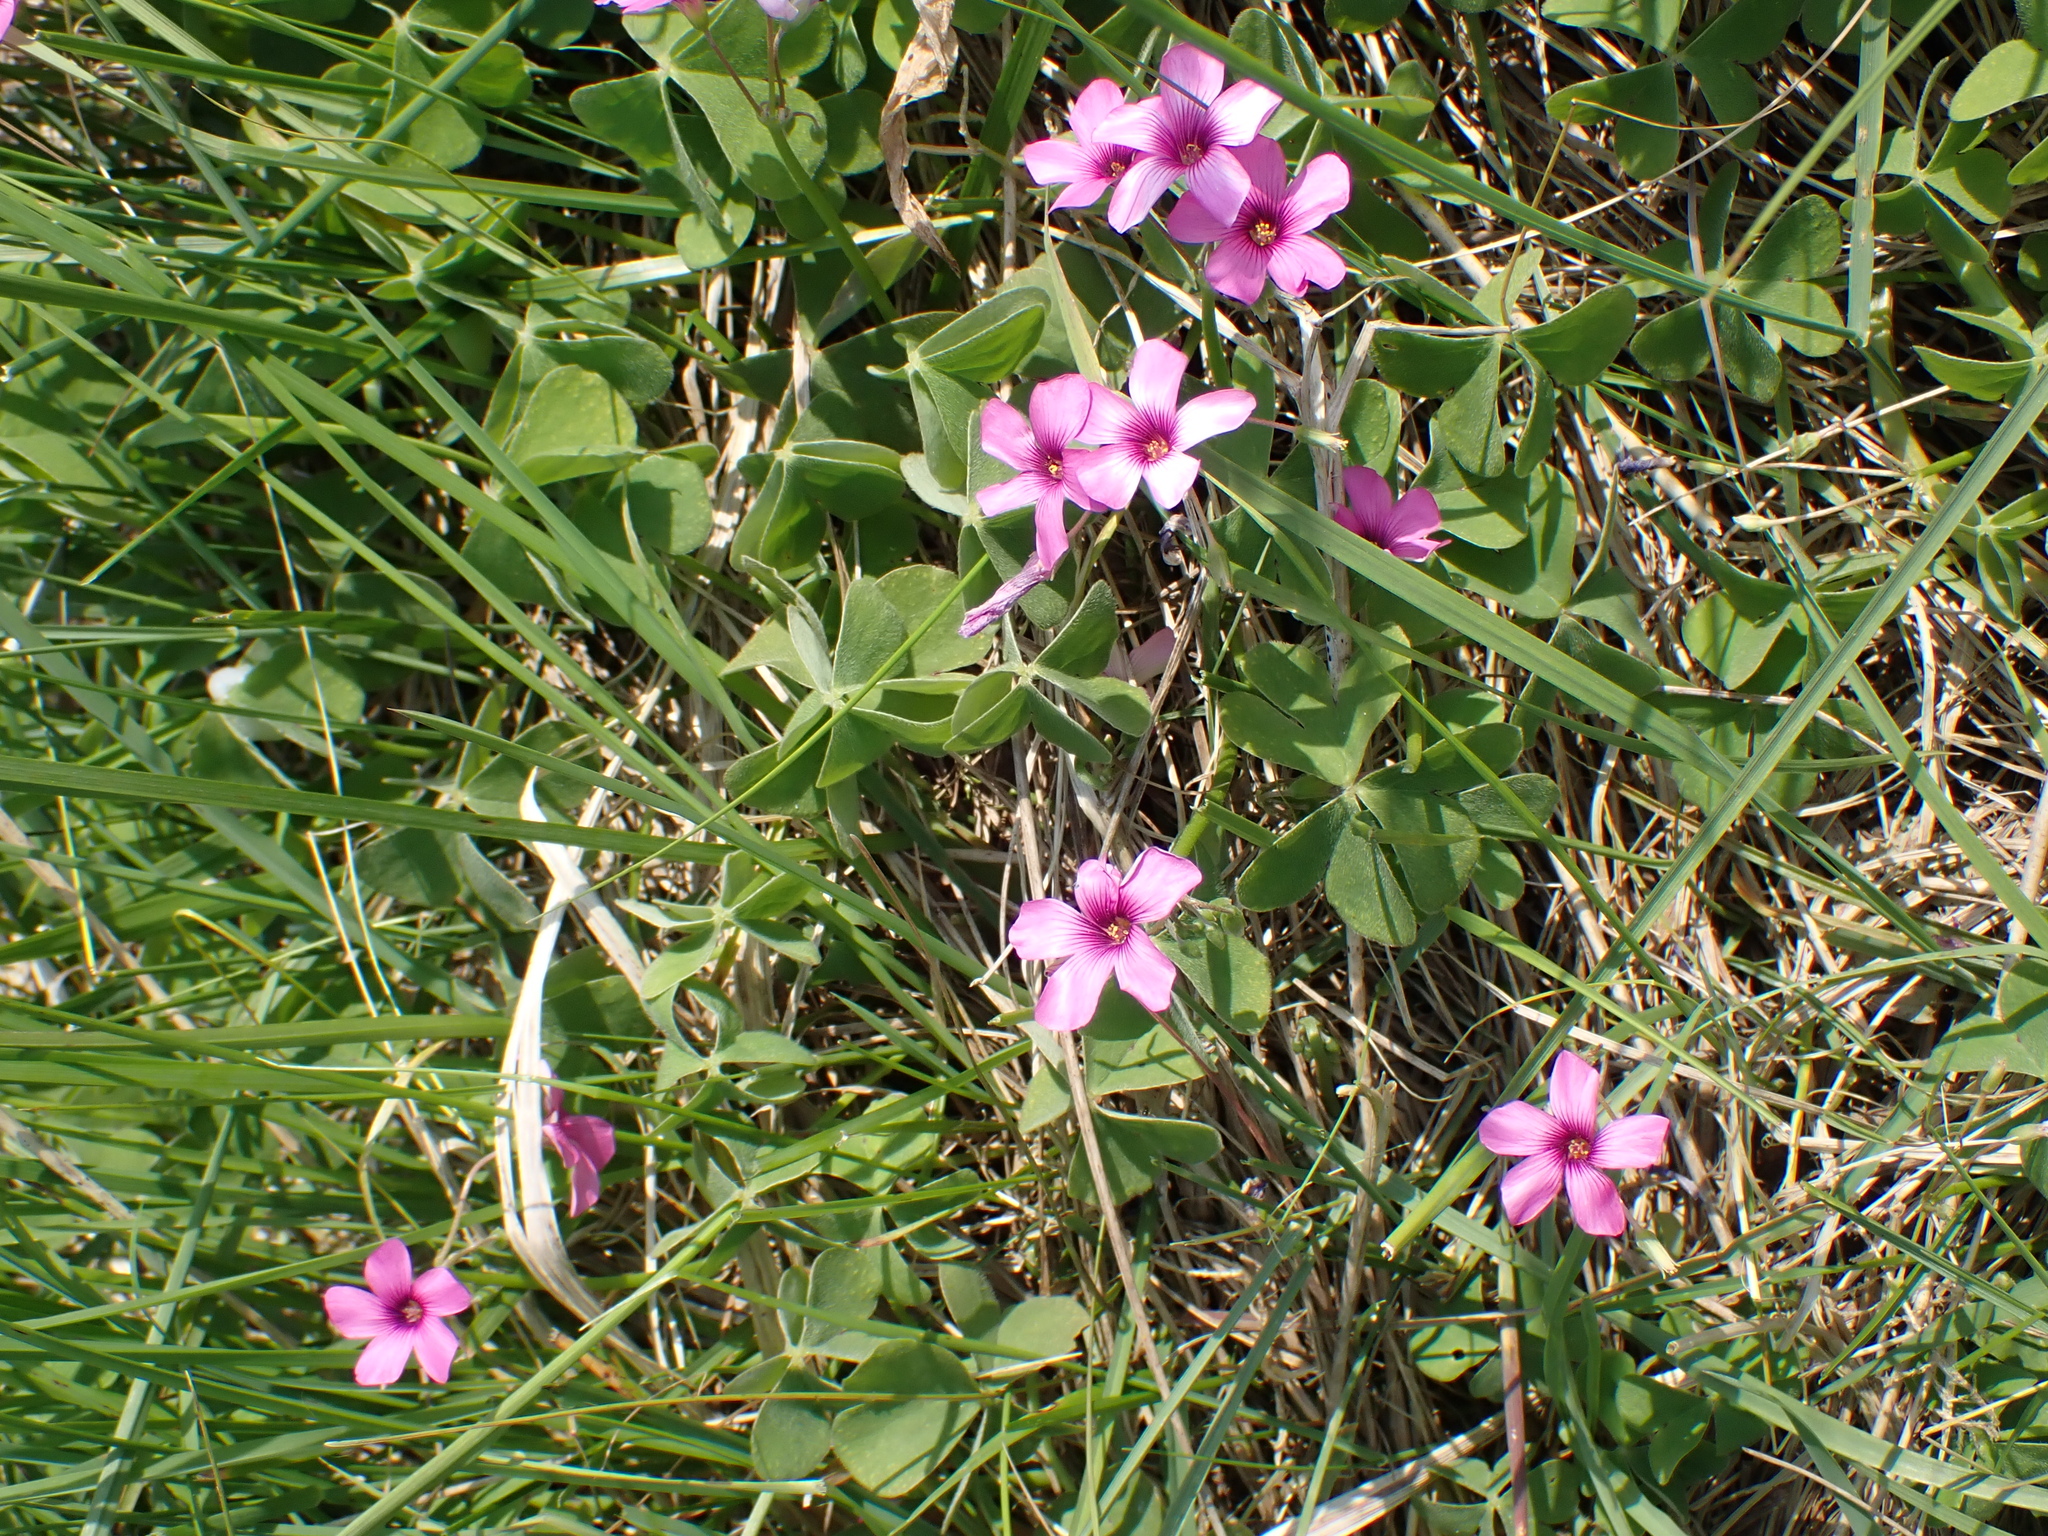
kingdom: Plantae
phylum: Tracheophyta
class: Magnoliopsida
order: Oxalidales
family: Oxalidaceae
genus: Oxalis
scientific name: Oxalis articulata
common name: Pink-sorrel
